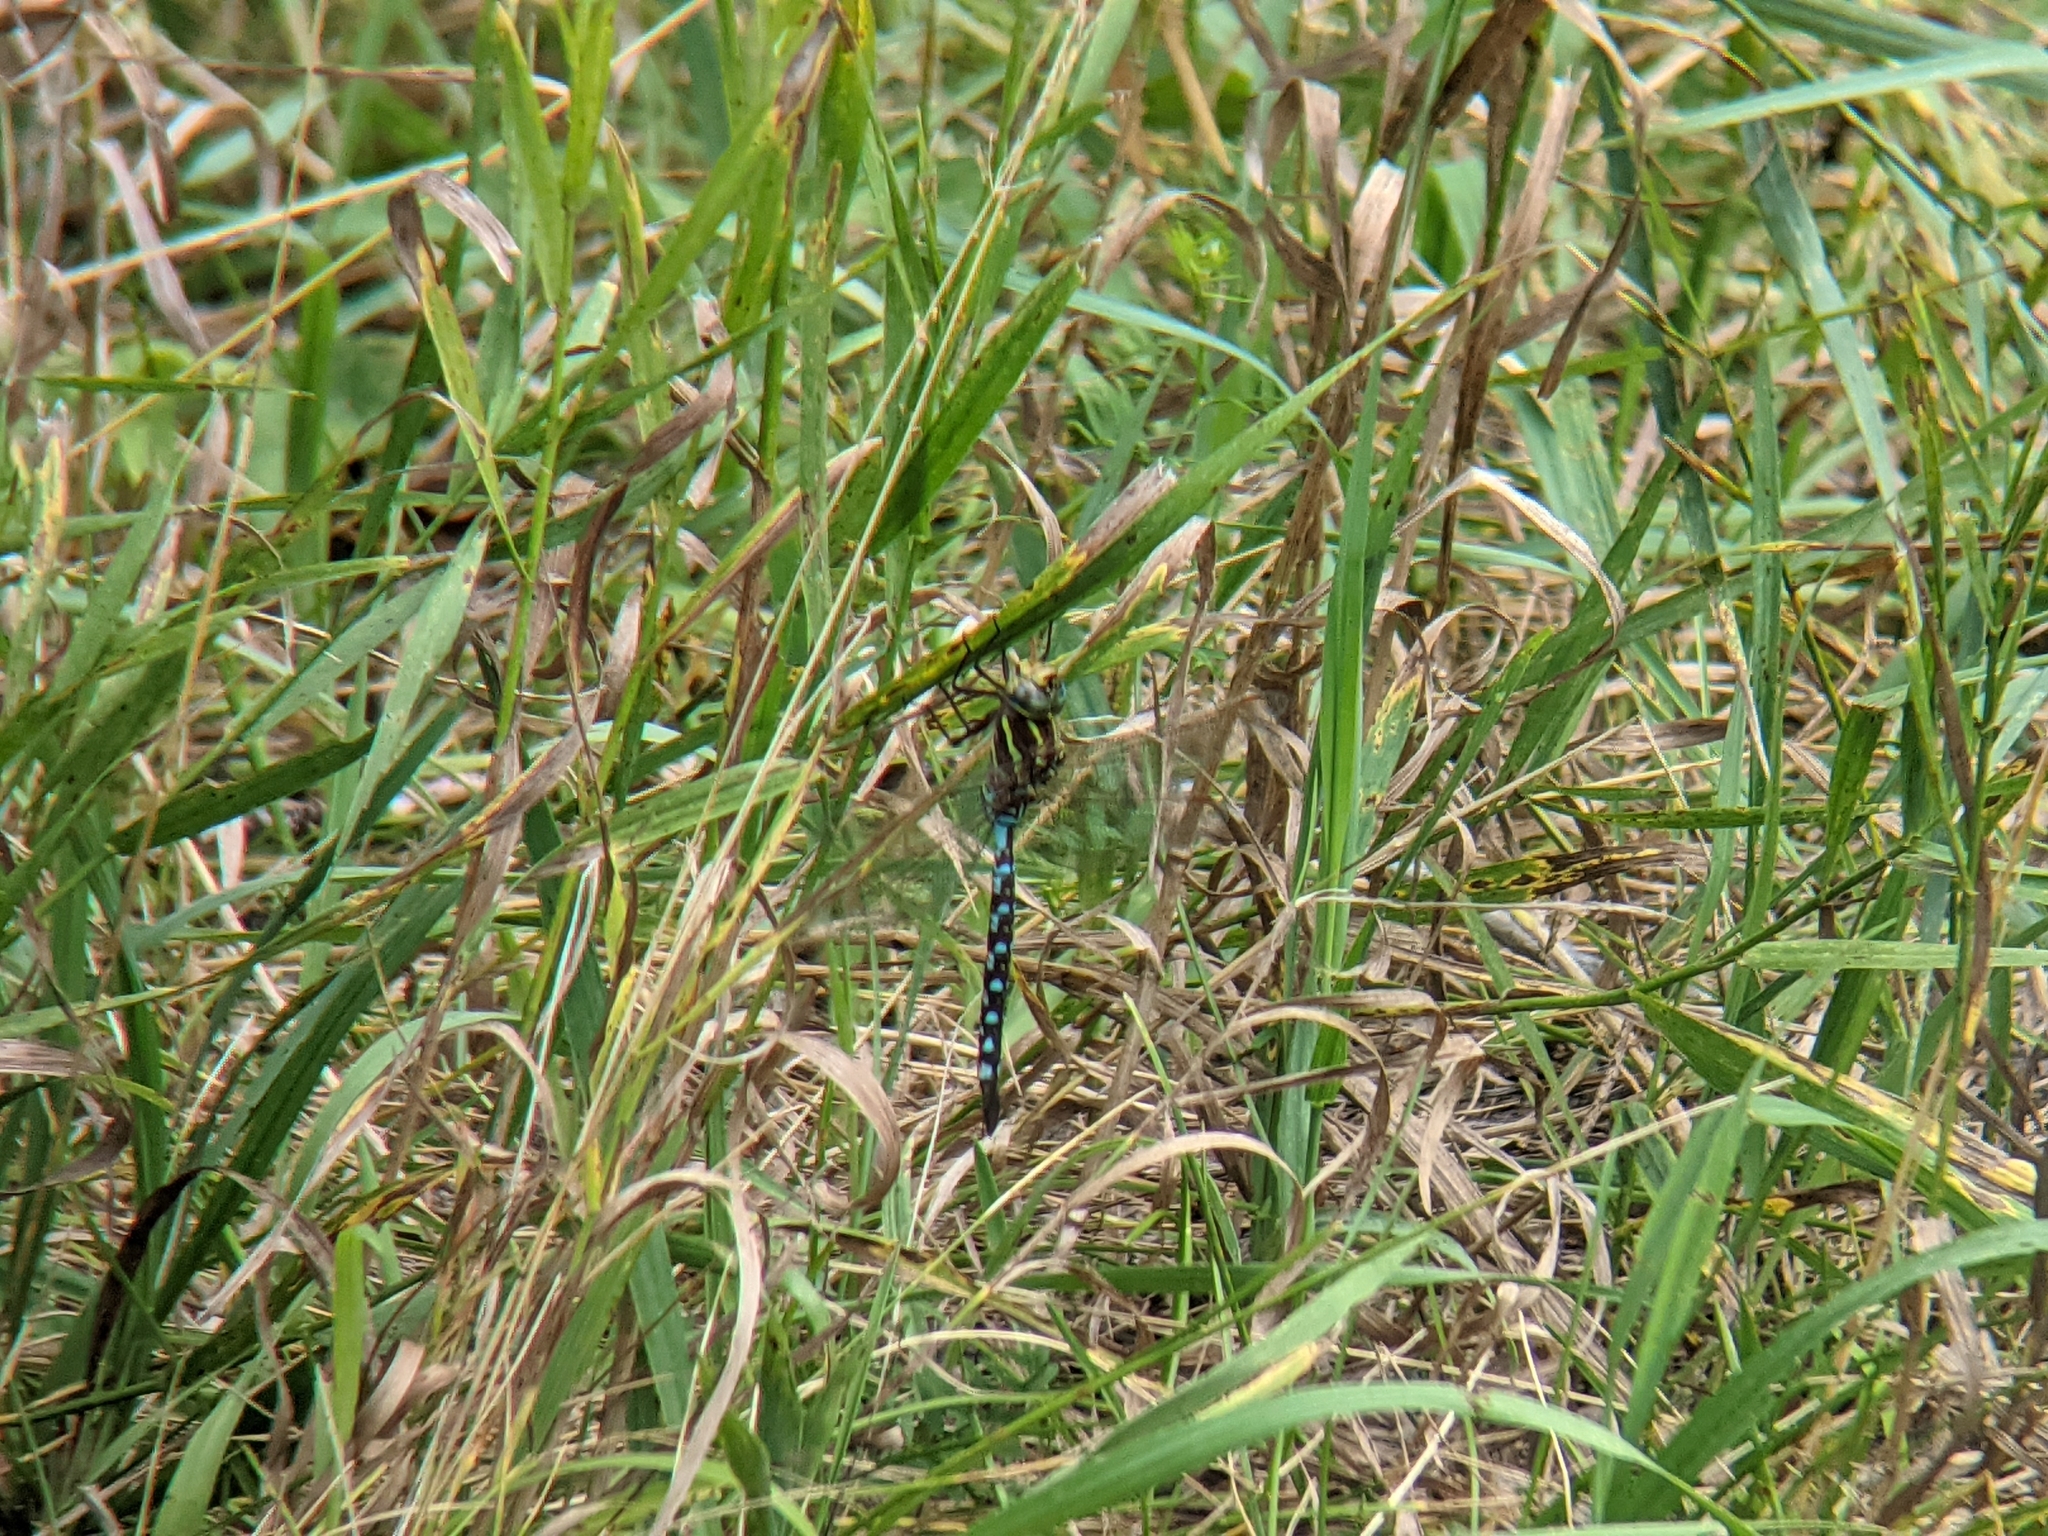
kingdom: Animalia
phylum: Arthropoda
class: Insecta
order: Odonata
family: Aeshnidae
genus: Aeshna
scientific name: Aeshna constricta
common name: Lance-tipped darner
